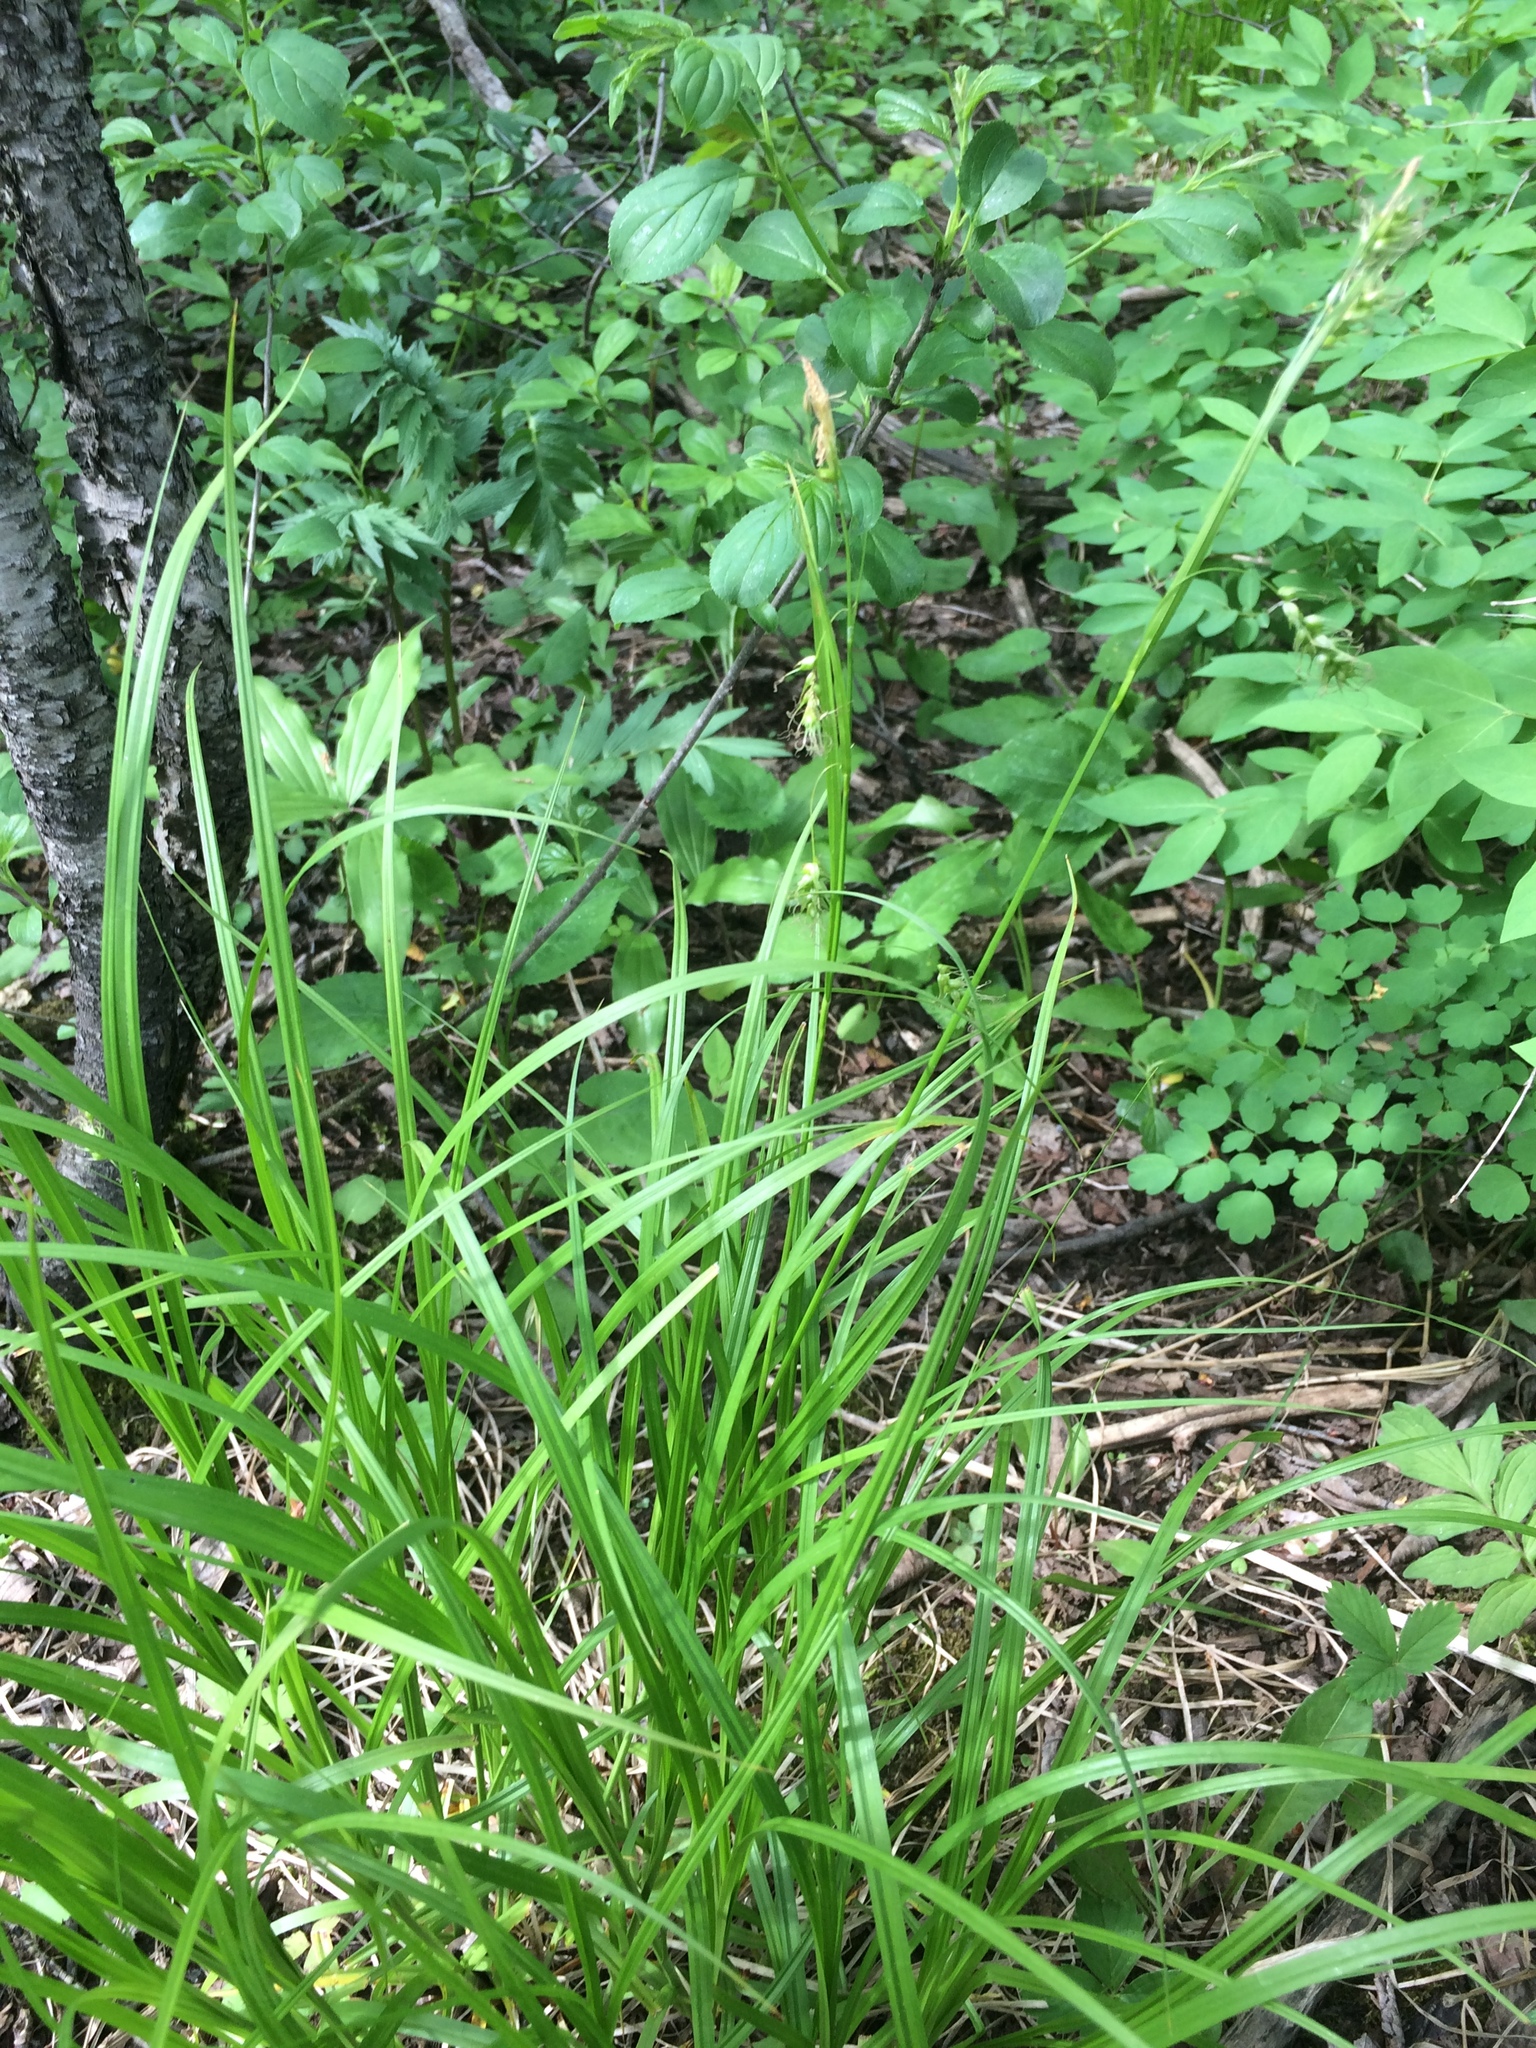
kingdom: Plantae
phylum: Tracheophyta
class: Liliopsida
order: Poales
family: Cyperaceae
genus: Carex
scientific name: Carex sprengelii
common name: Long-beaked sedge
